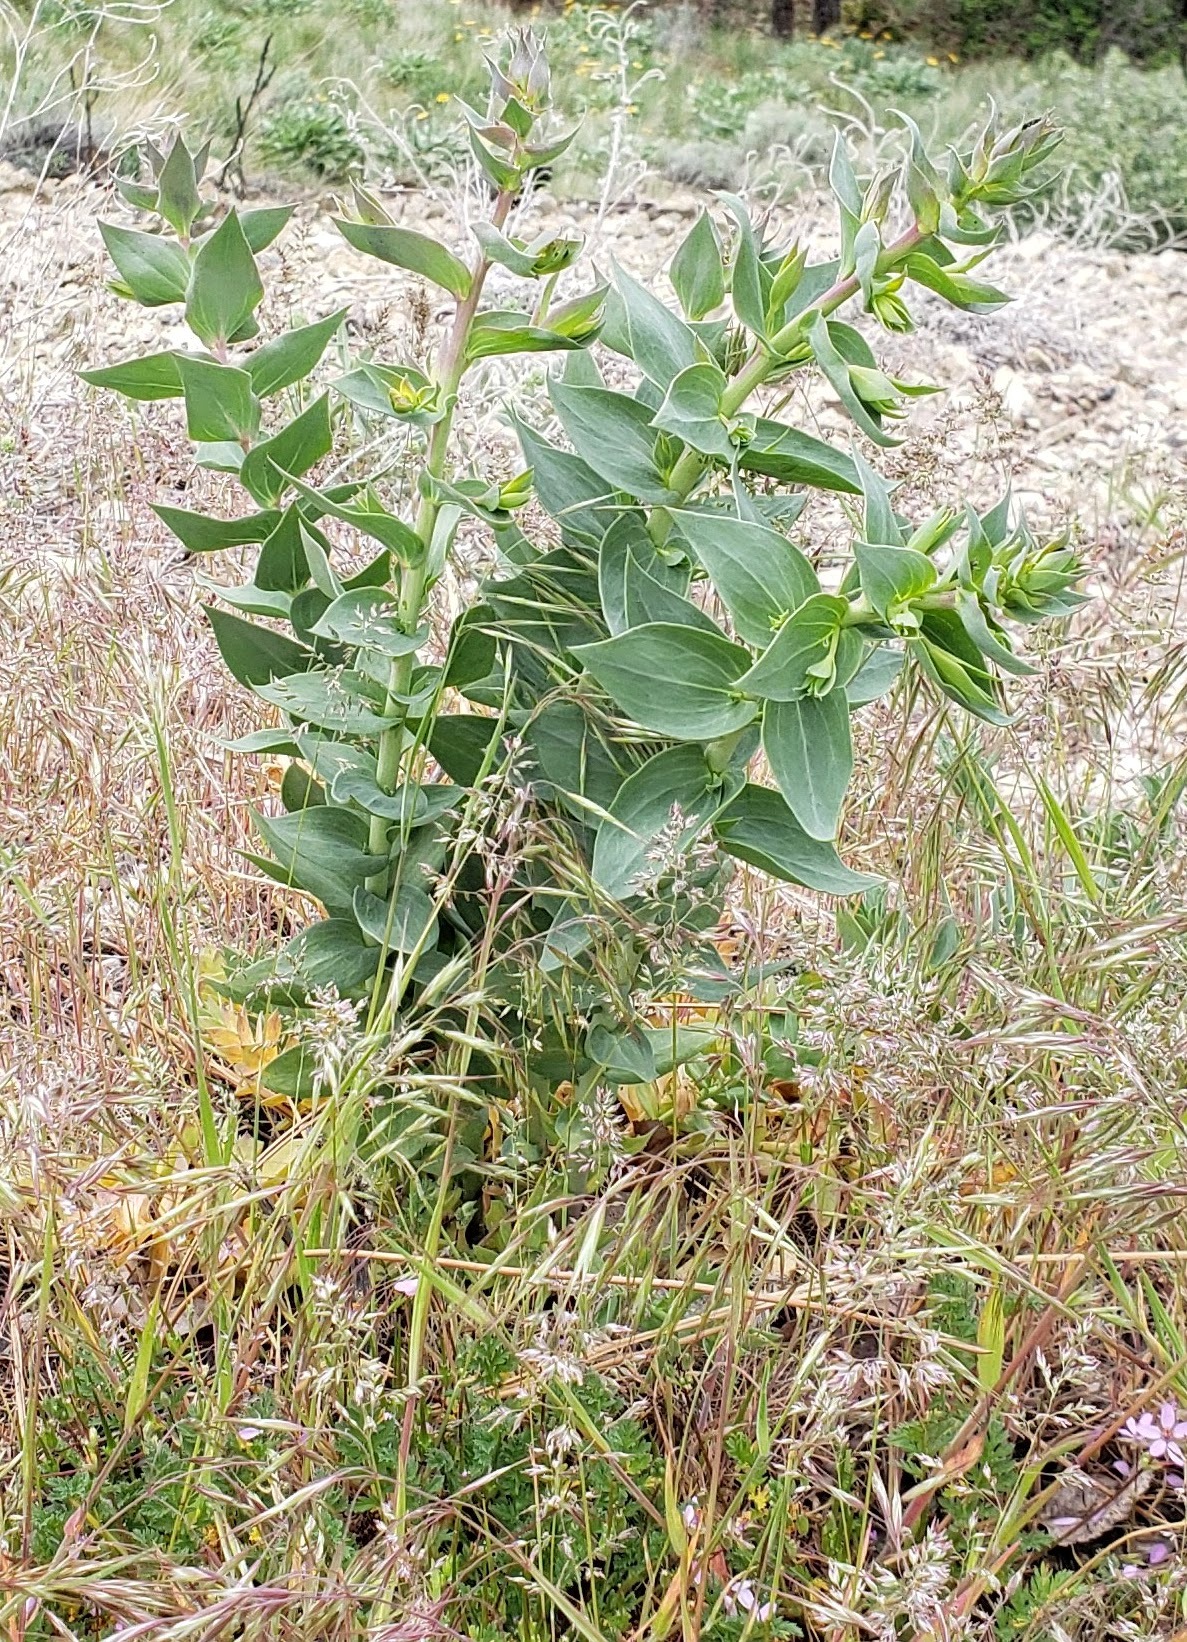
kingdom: Plantae
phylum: Tracheophyta
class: Magnoliopsida
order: Lamiales
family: Plantaginaceae
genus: Linaria
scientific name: Linaria dalmatica
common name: Dalmatian toadflax
